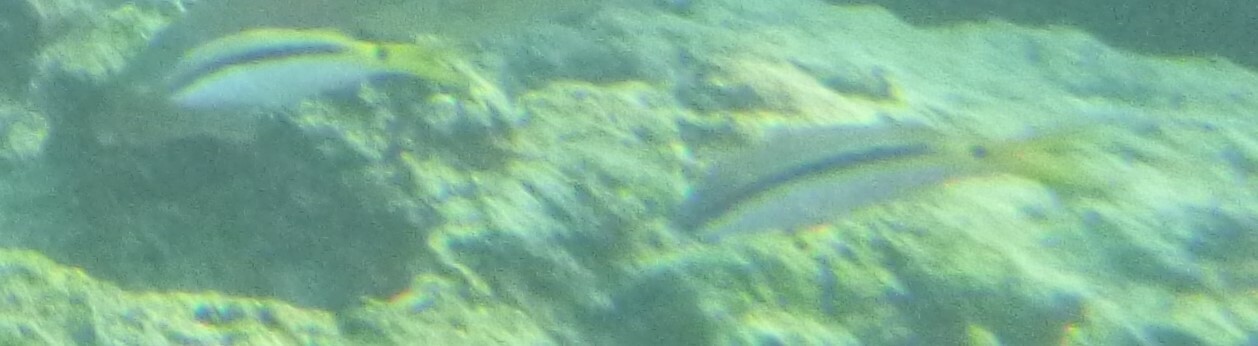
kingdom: Animalia
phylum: Chordata
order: Perciformes
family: Mullidae
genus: Parupeneus
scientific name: Parupeneus forsskali
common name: Red sea goatfish
